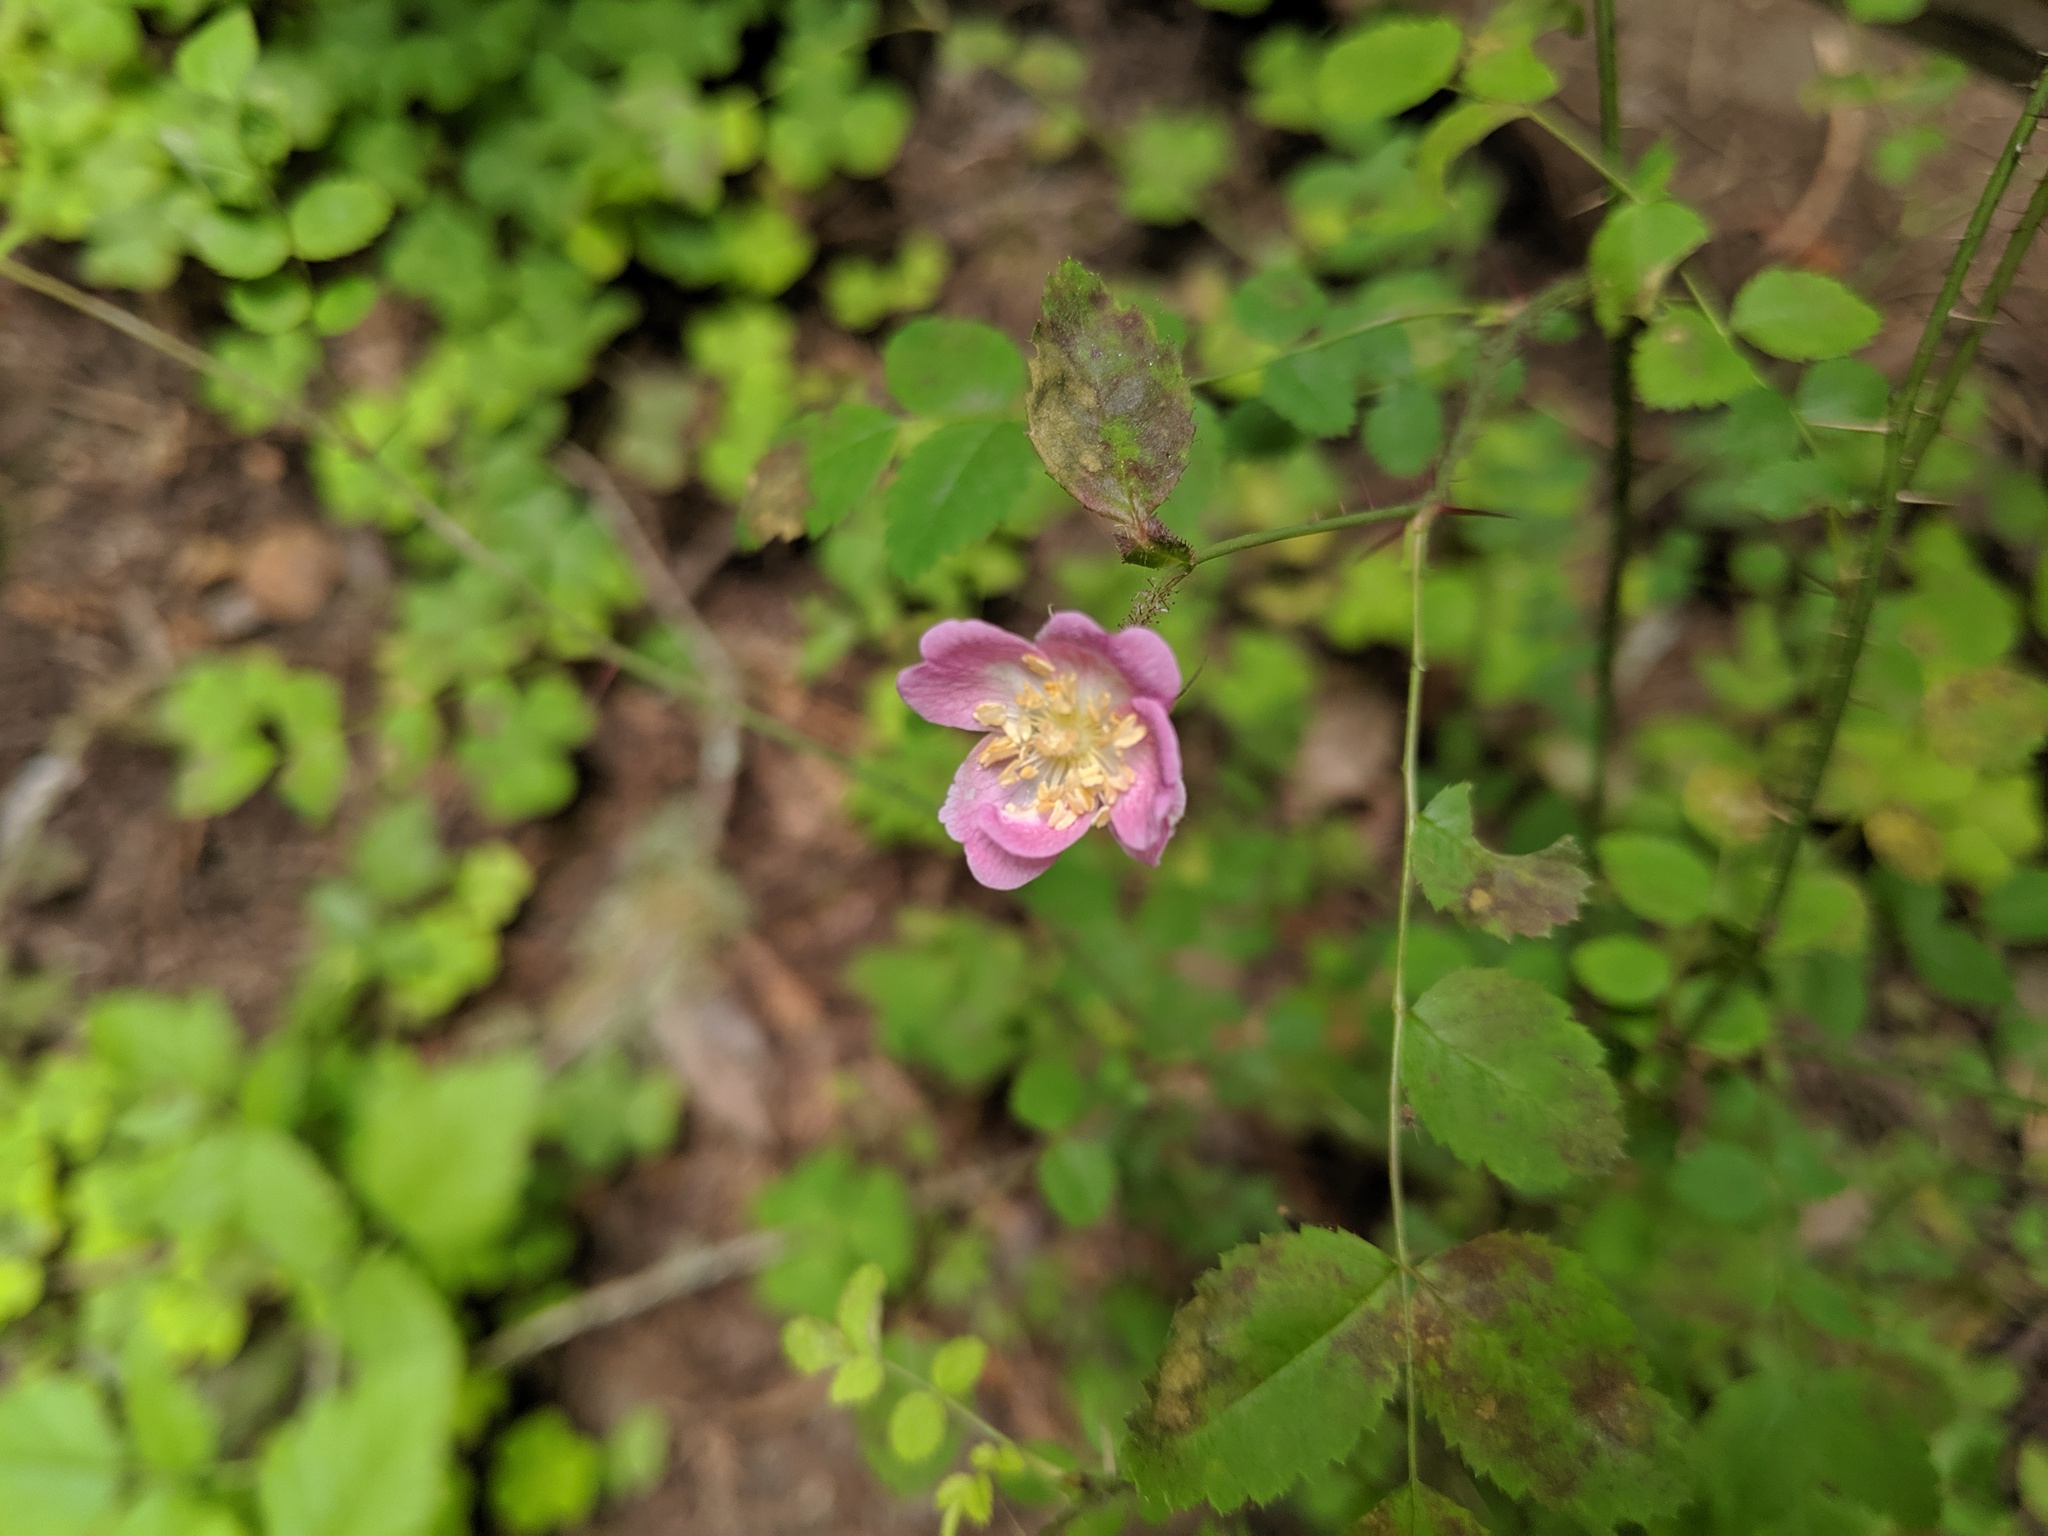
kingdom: Plantae
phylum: Tracheophyta
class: Magnoliopsida
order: Rosales
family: Rosaceae
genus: Rosa
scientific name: Rosa gymnocarpa
